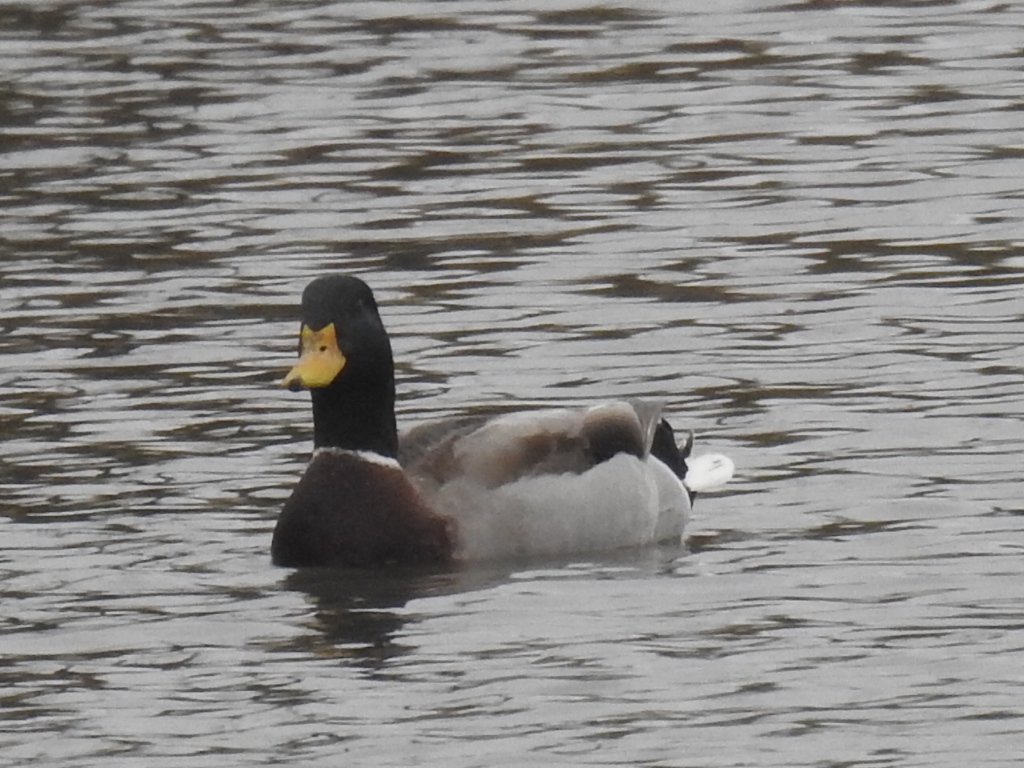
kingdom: Animalia
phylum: Chordata
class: Aves
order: Anseriformes
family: Anatidae
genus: Anas
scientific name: Anas platyrhynchos
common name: Mallard
